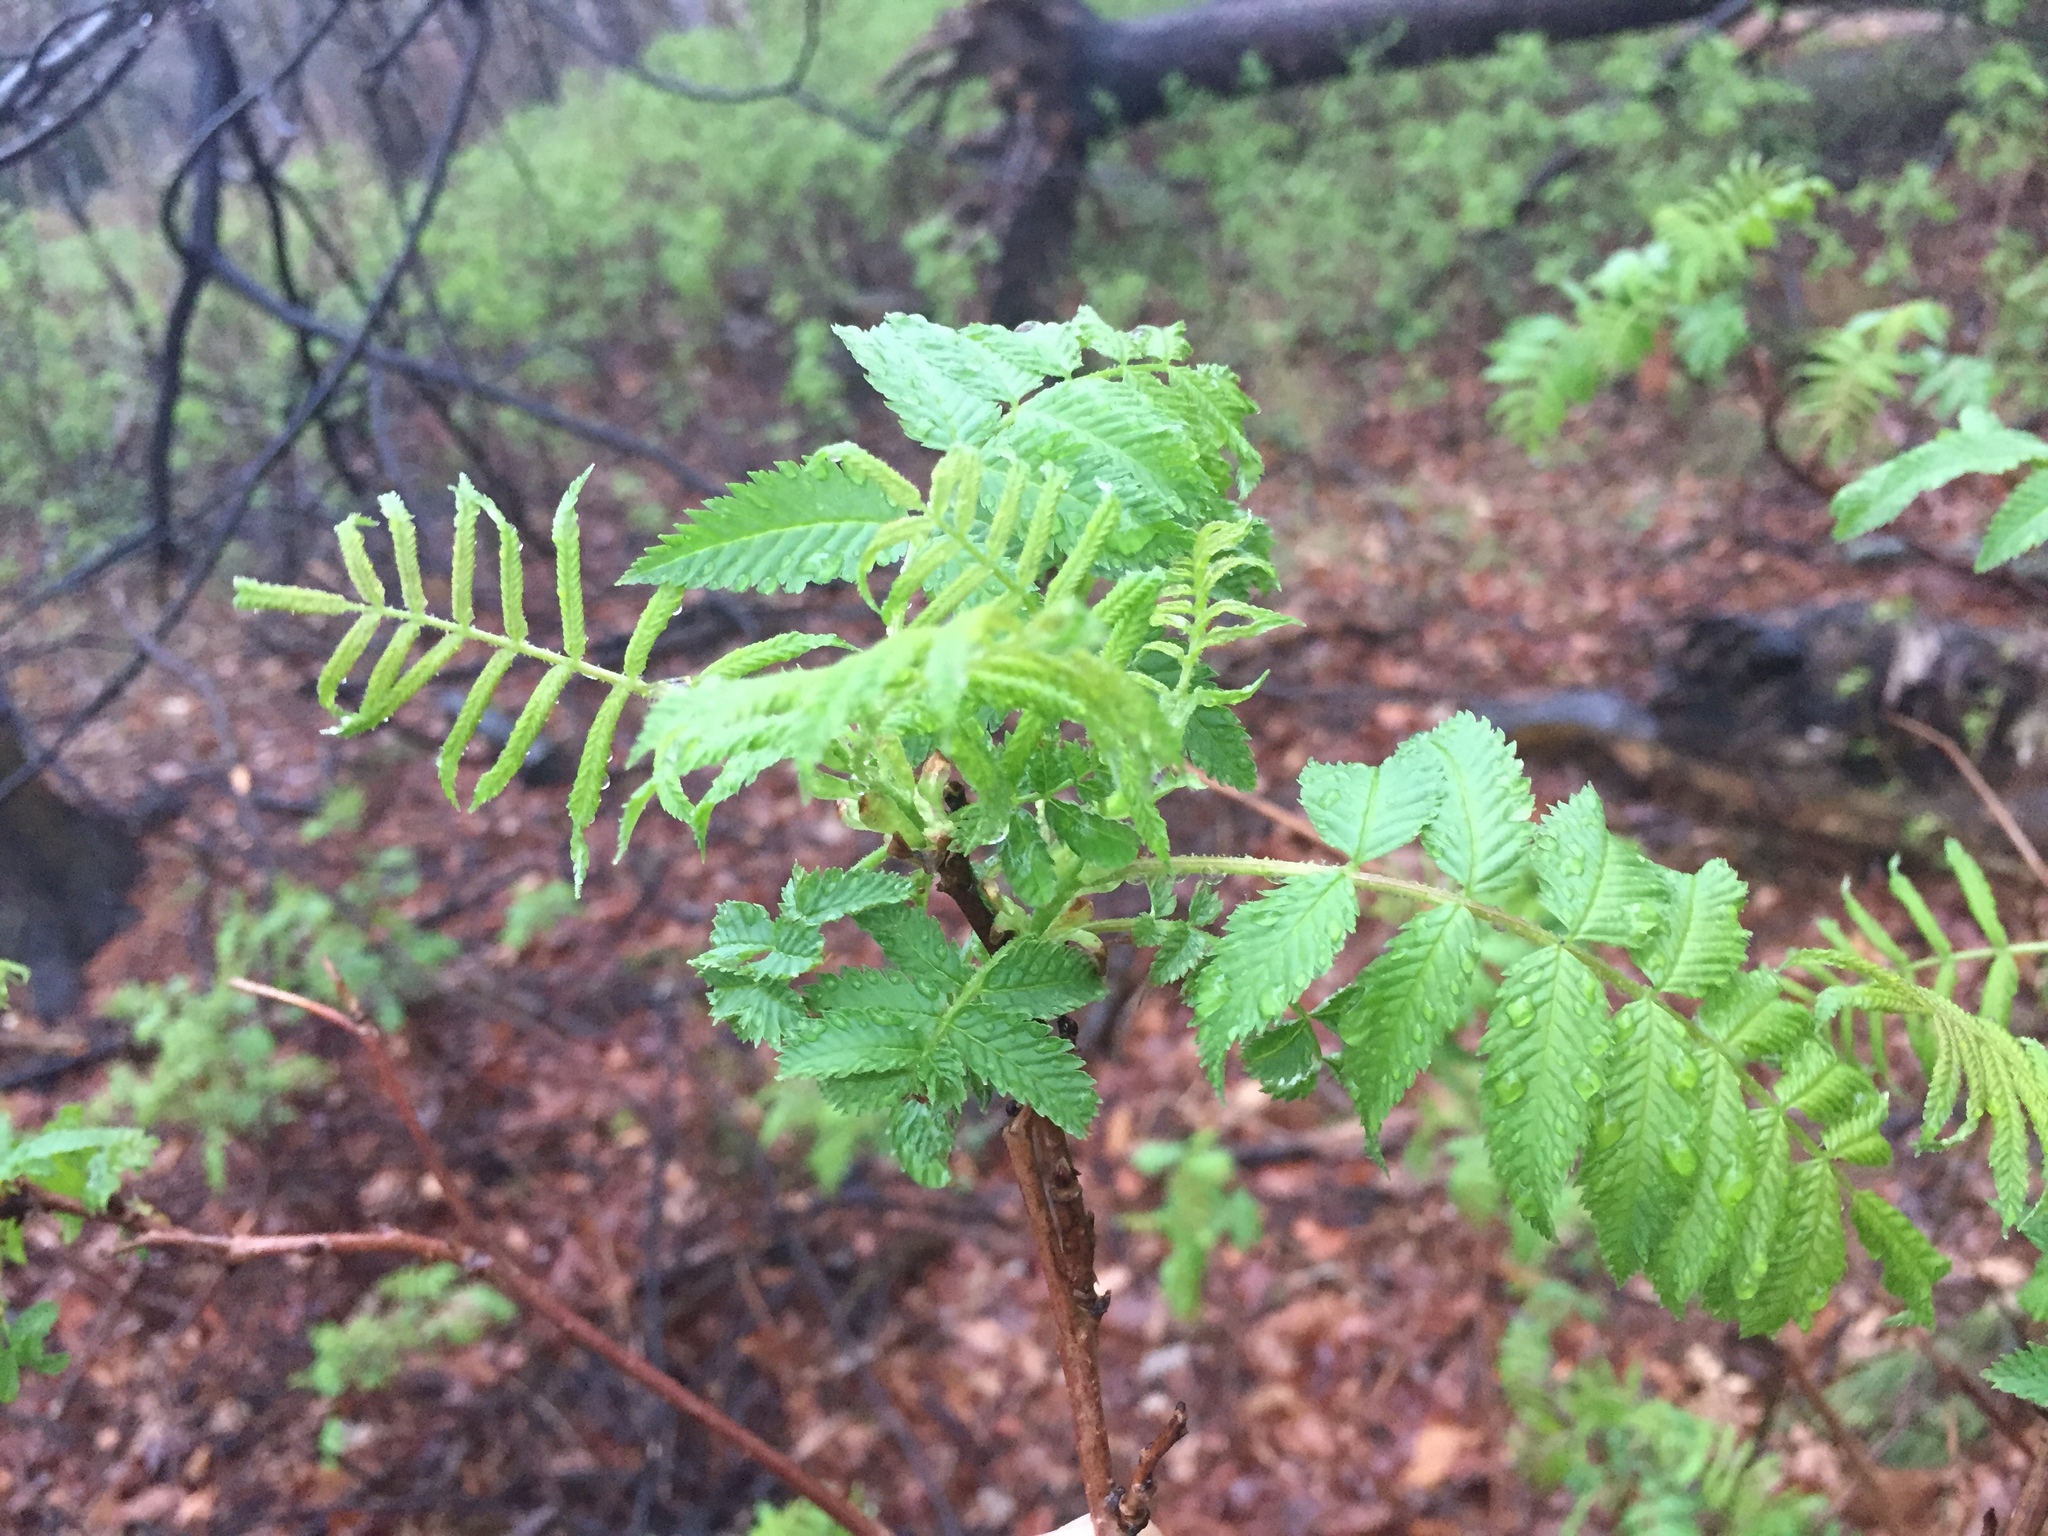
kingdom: Plantae
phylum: Tracheophyta
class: Magnoliopsida
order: Rosales
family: Rosaceae
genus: Sorbaria
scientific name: Sorbaria sorbifolia
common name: False spiraea
